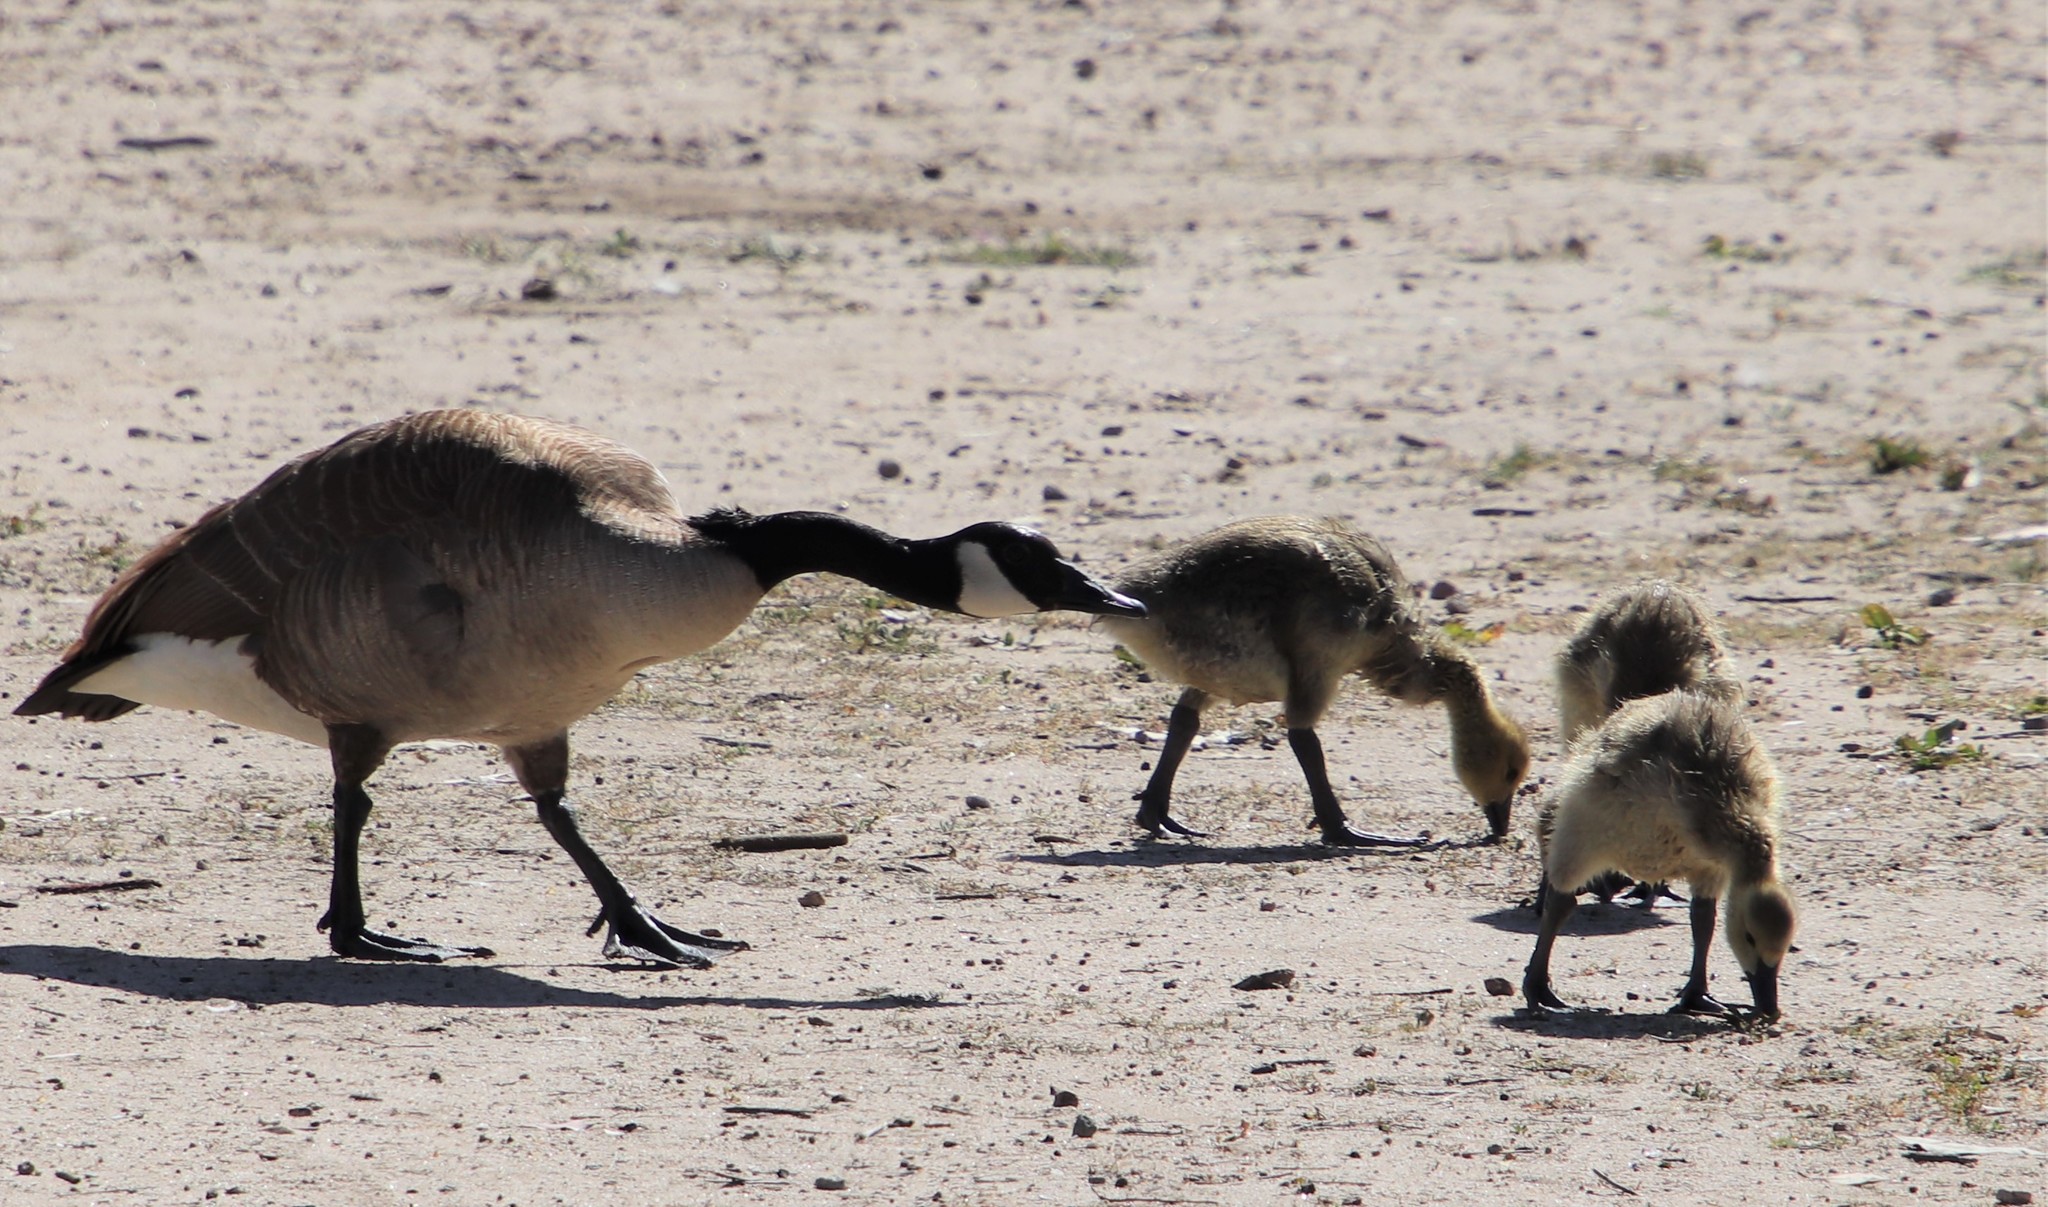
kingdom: Animalia
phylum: Chordata
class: Aves
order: Anseriformes
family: Anatidae
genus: Branta
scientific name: Branta canadensis
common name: Canada goose
